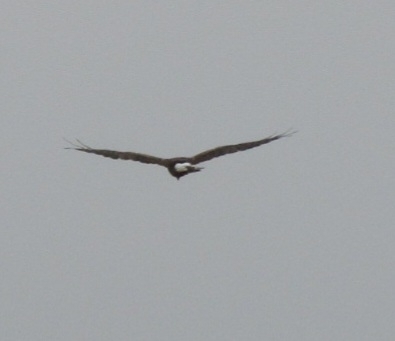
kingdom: Animalia
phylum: Chordata
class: Aves
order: Accipitriformes
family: Accipitridae
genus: Circus
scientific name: Circus cyaneus
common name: Hen harrier
